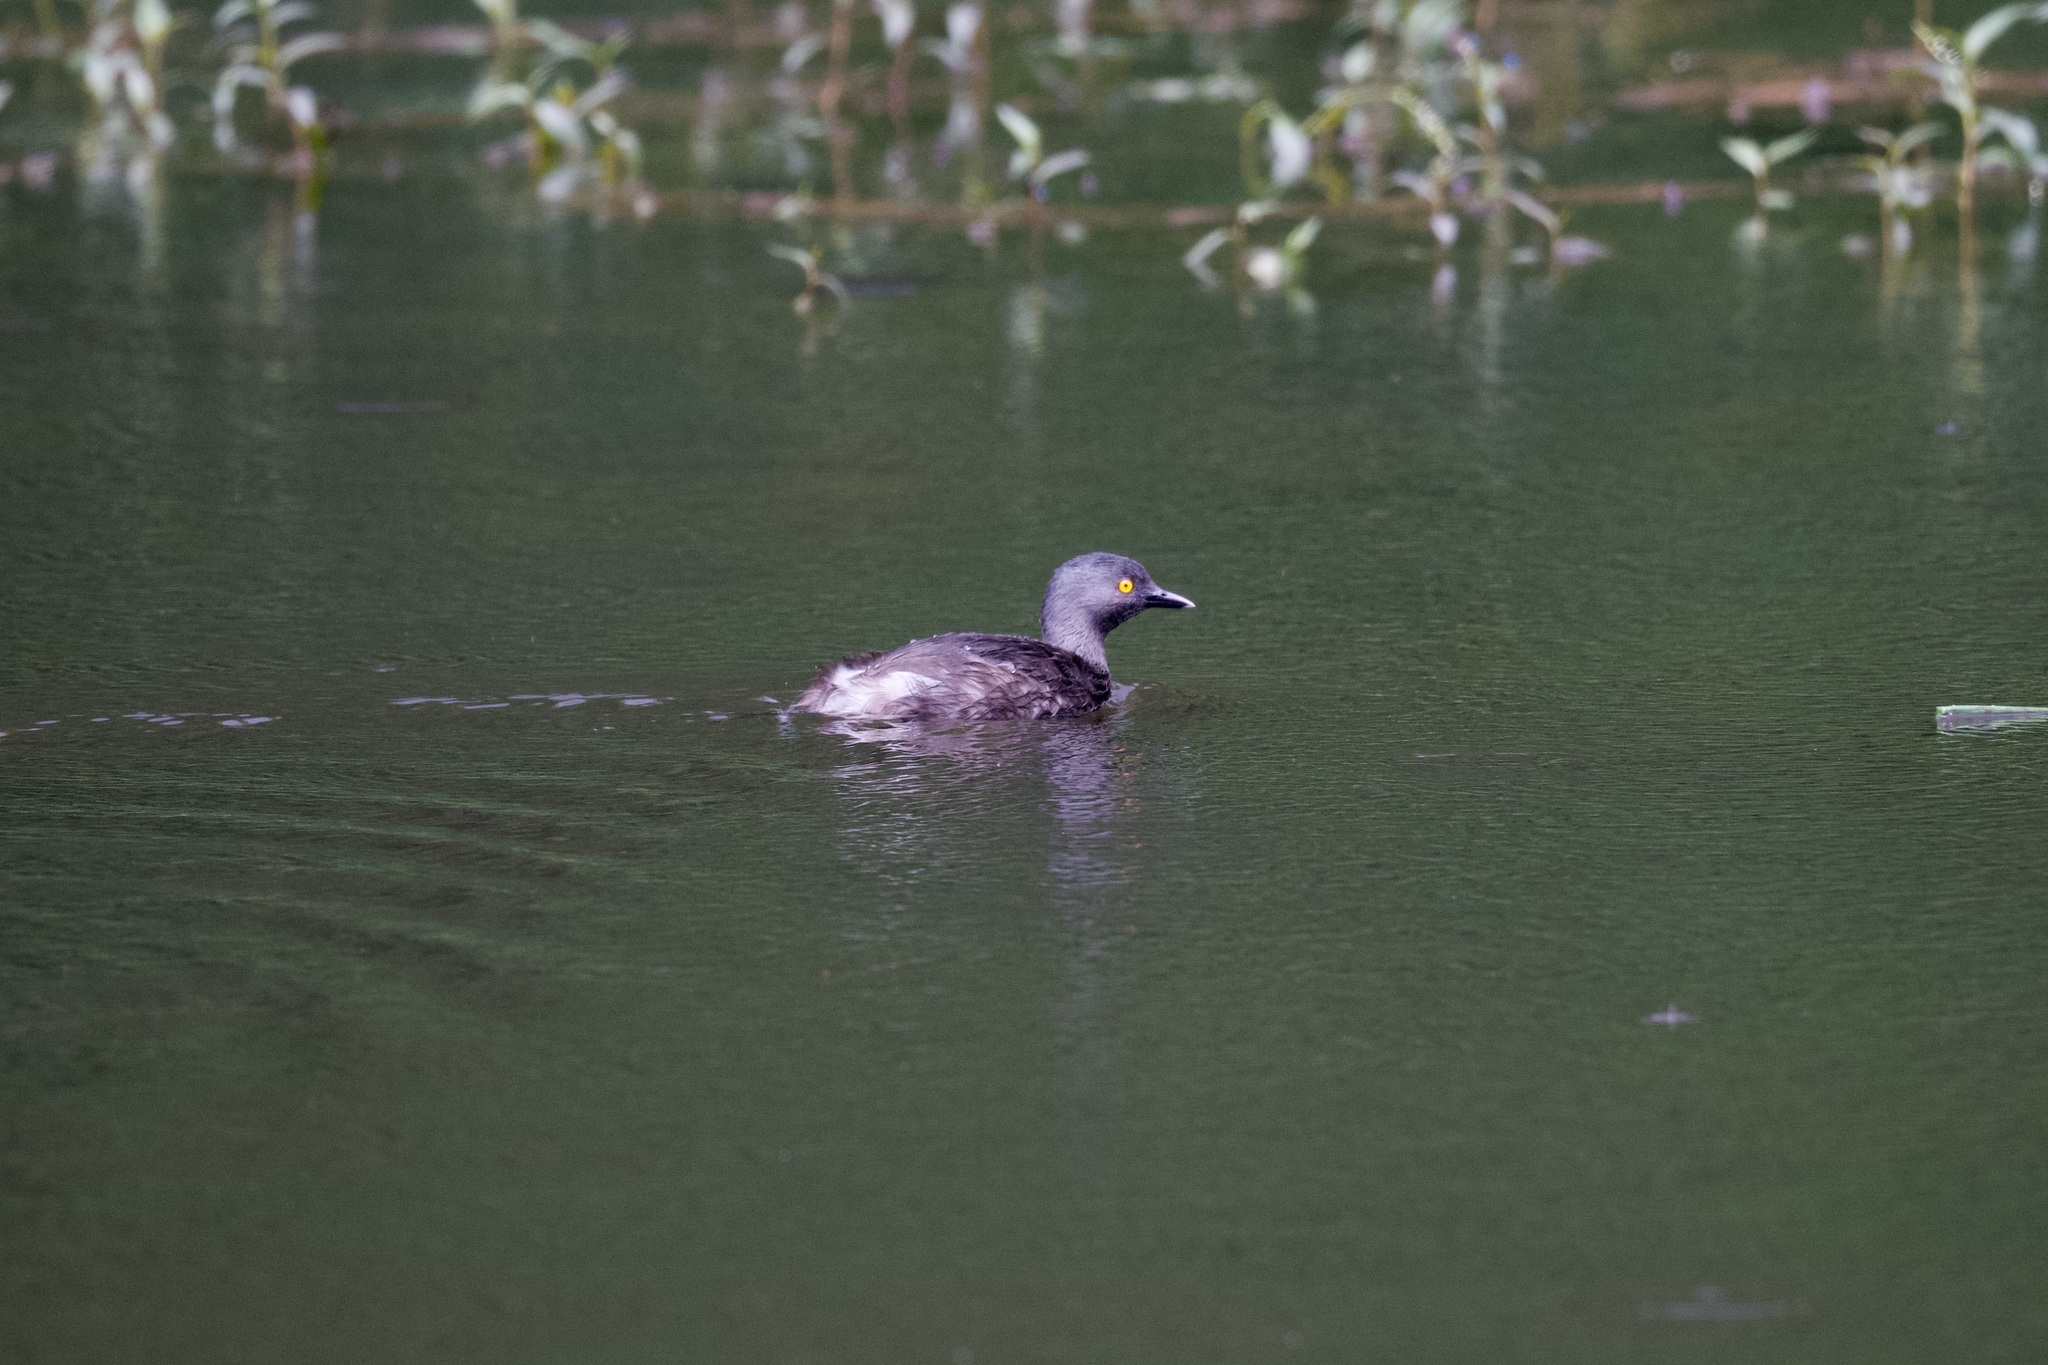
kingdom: Animalia
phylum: Chordata
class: Aves
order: Podicipediformes
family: Podicipedidae
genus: Tachybaptus
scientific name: Tachybaptus dominicus
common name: Least grebe
